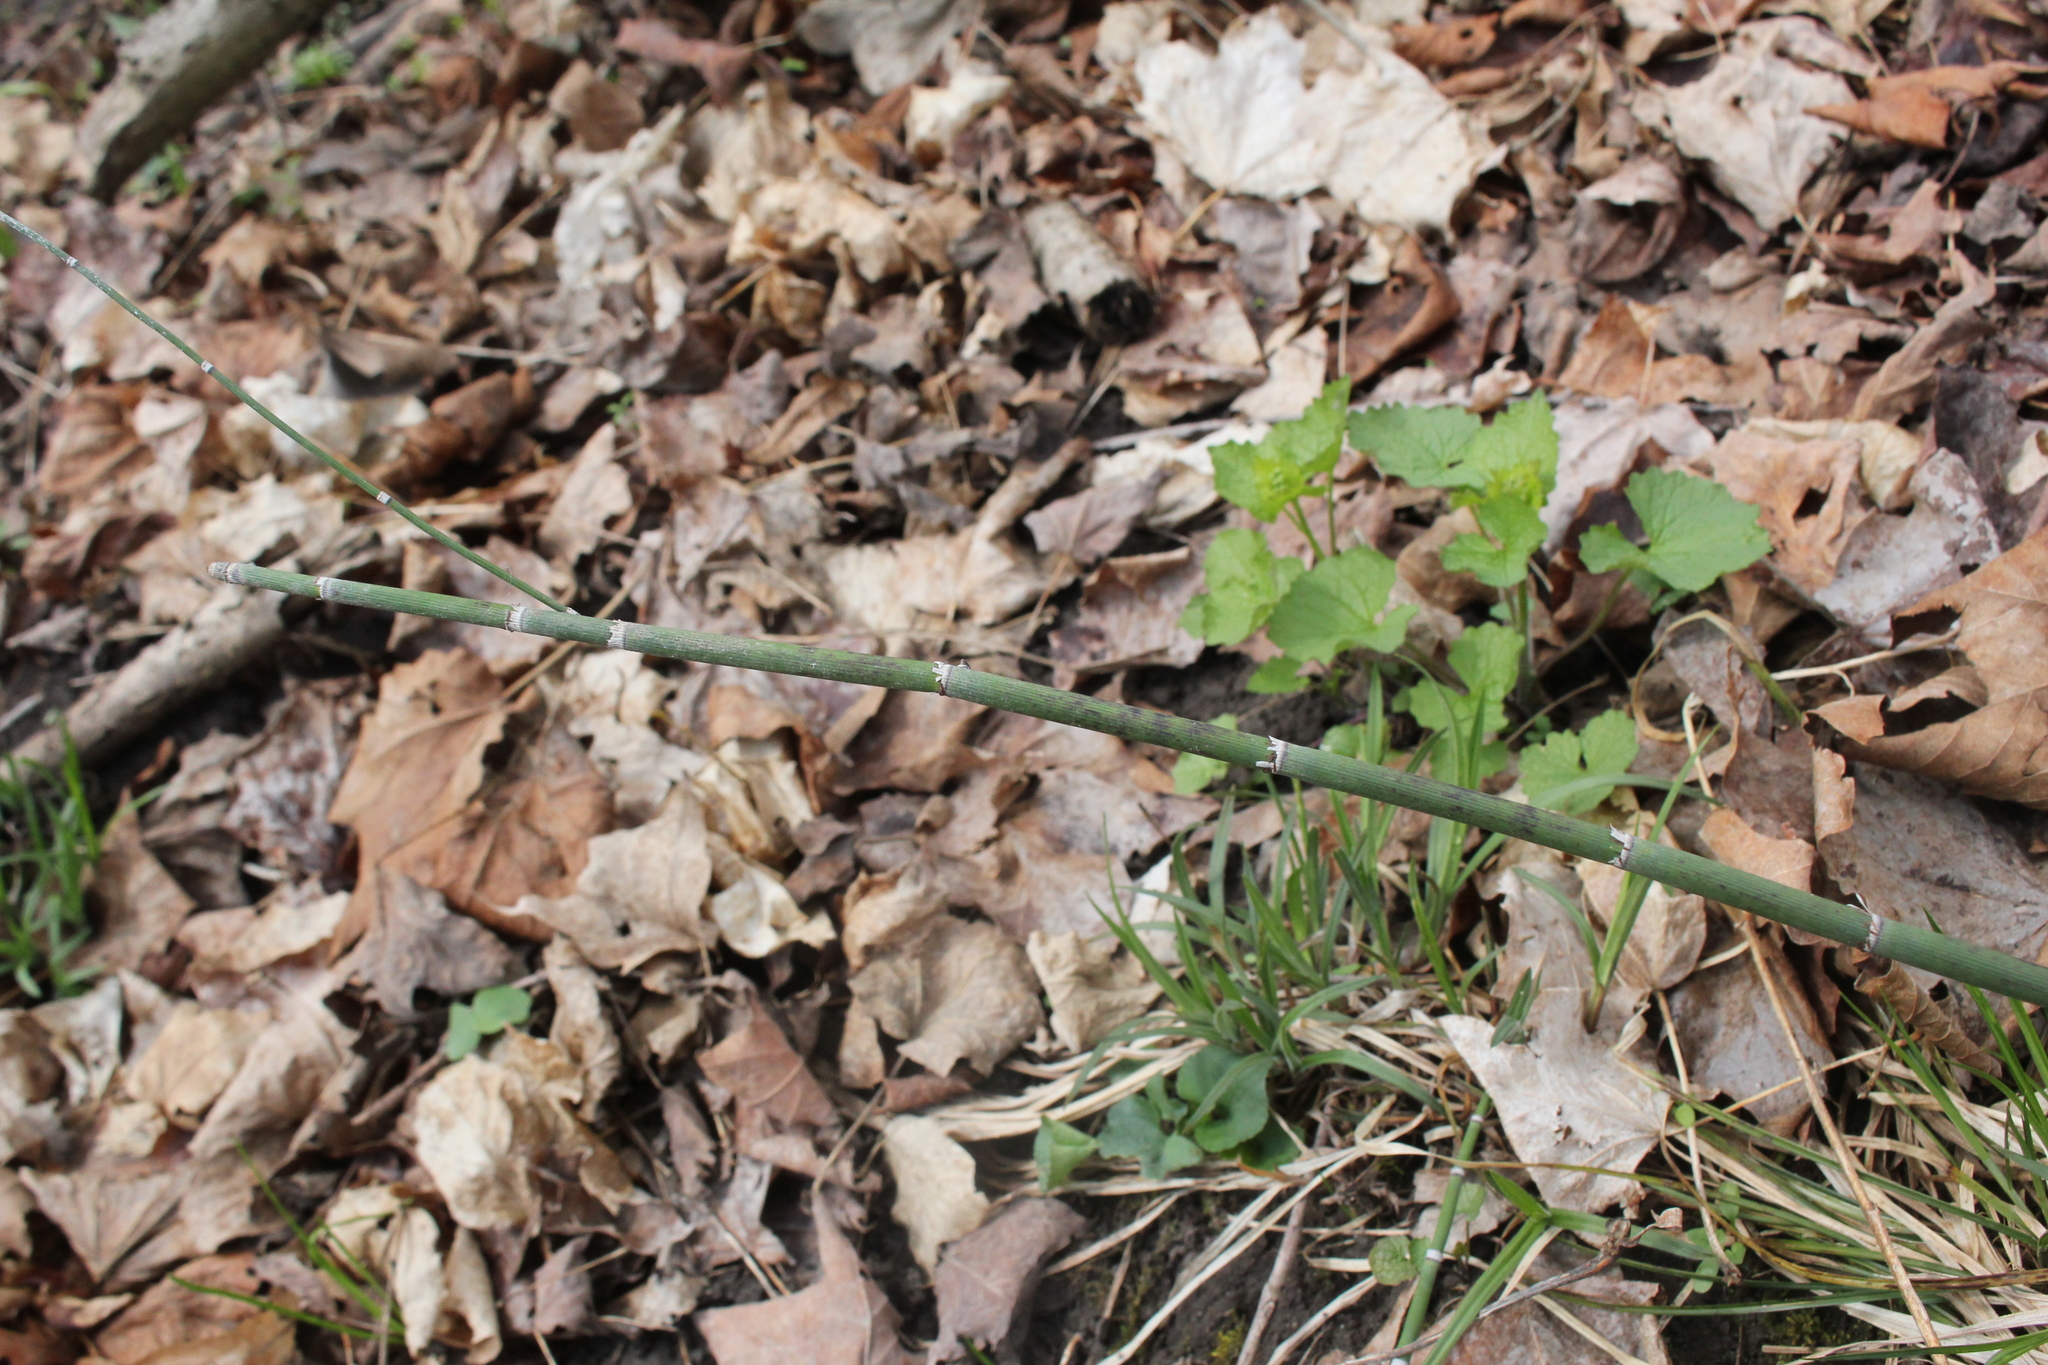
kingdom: Plantae
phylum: Tracheophyta
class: Polypodiopsida
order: Equisetales
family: Equisetaceae
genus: Equisetum
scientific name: Equisetum praealtum
